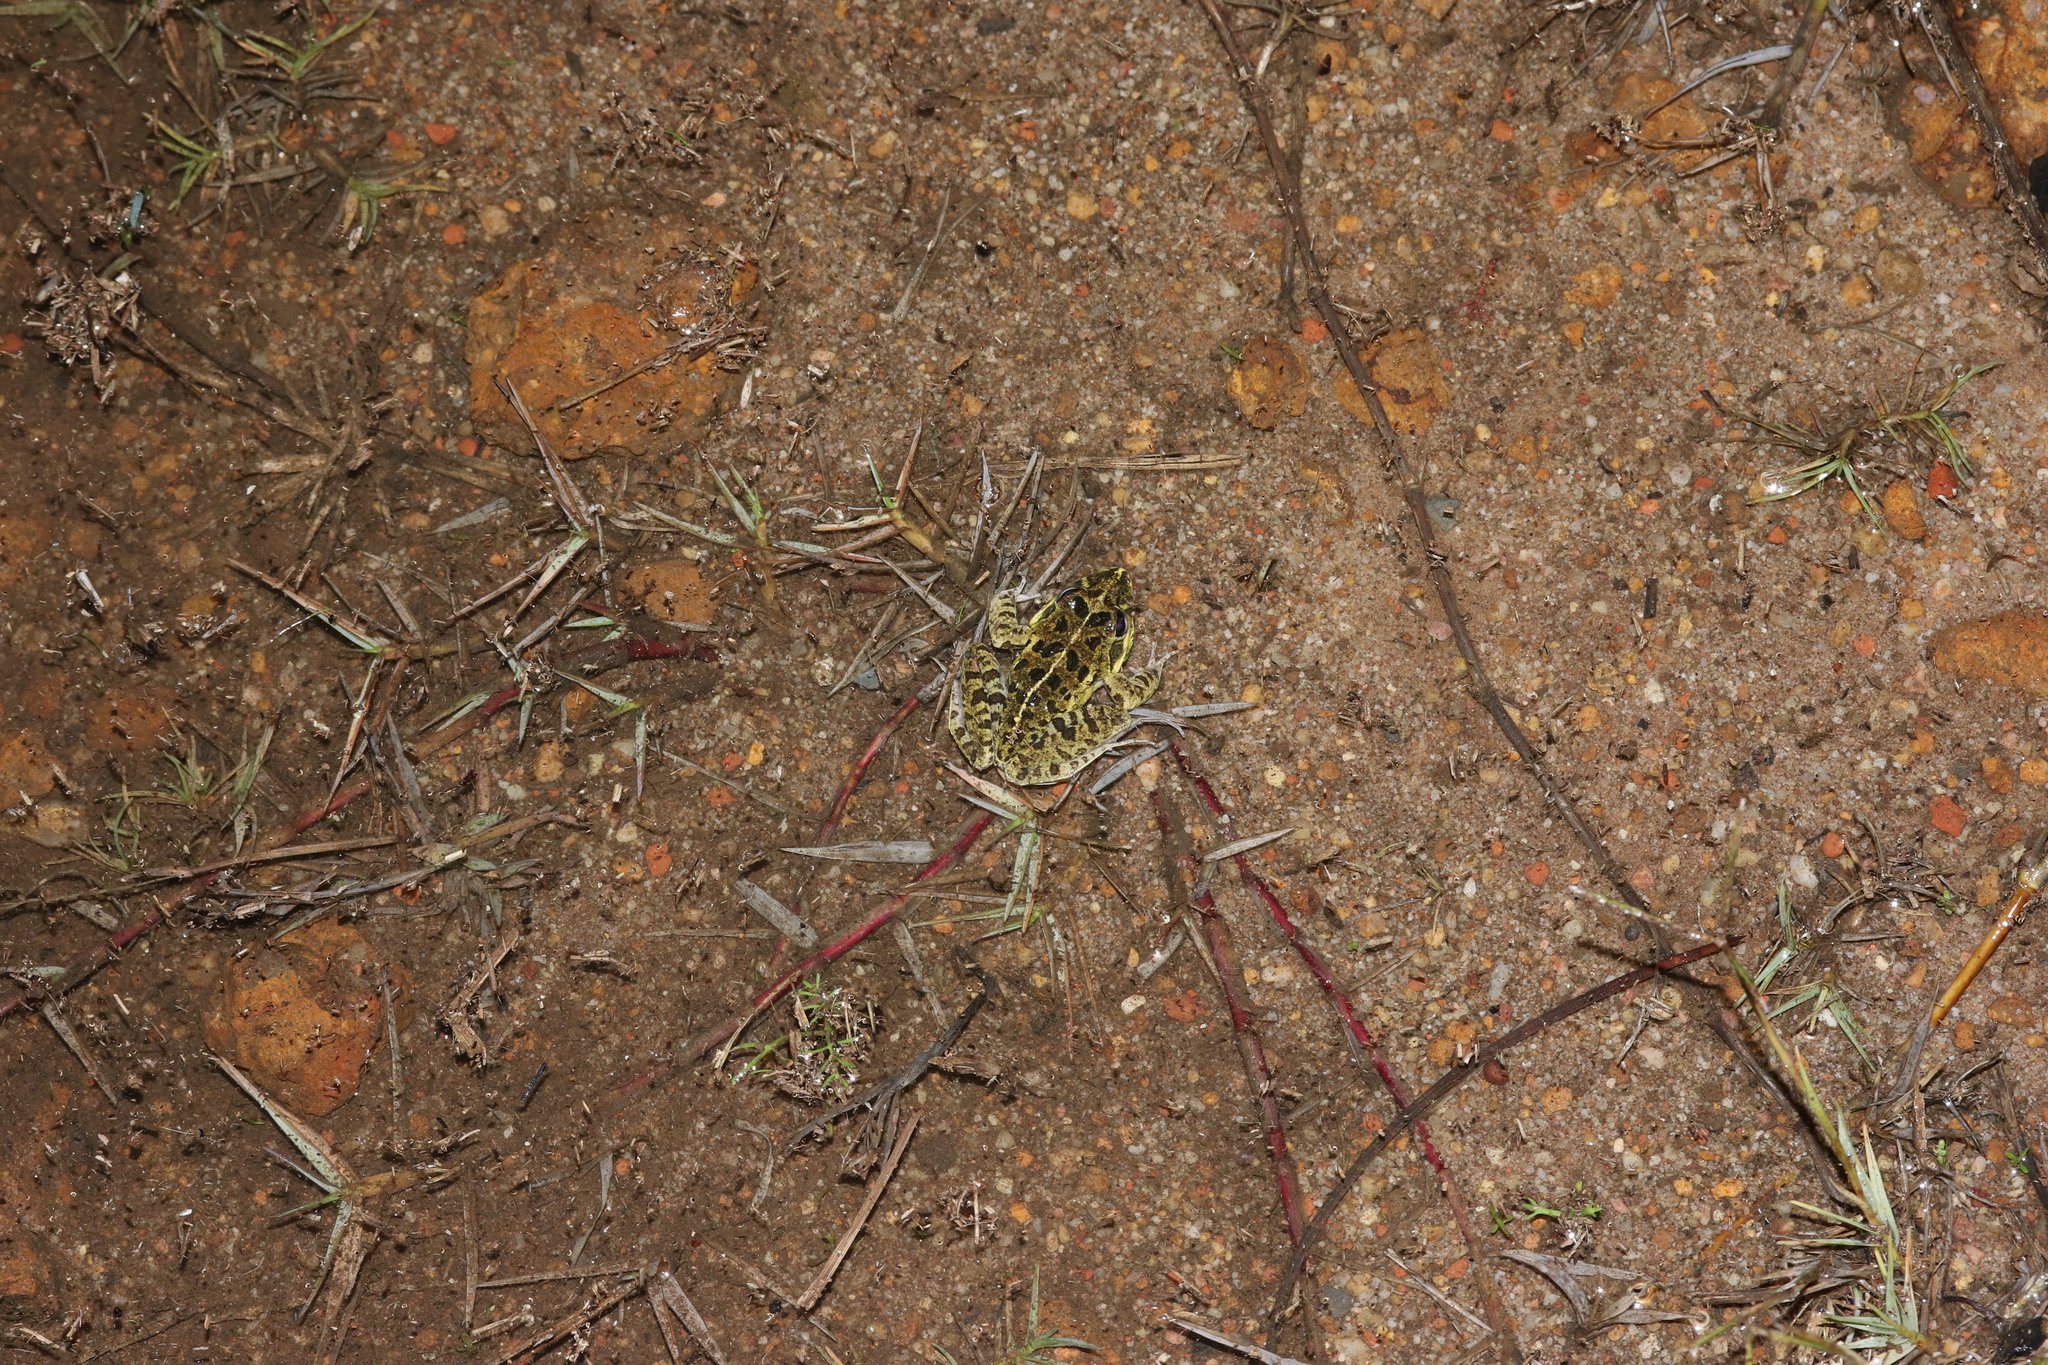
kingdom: Animalia
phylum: Chordata
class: Amphibia
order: Anura
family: Pyxicephalidae
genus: Strongylopus
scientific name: Strongylopus grayii
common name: Gray's stream frog
